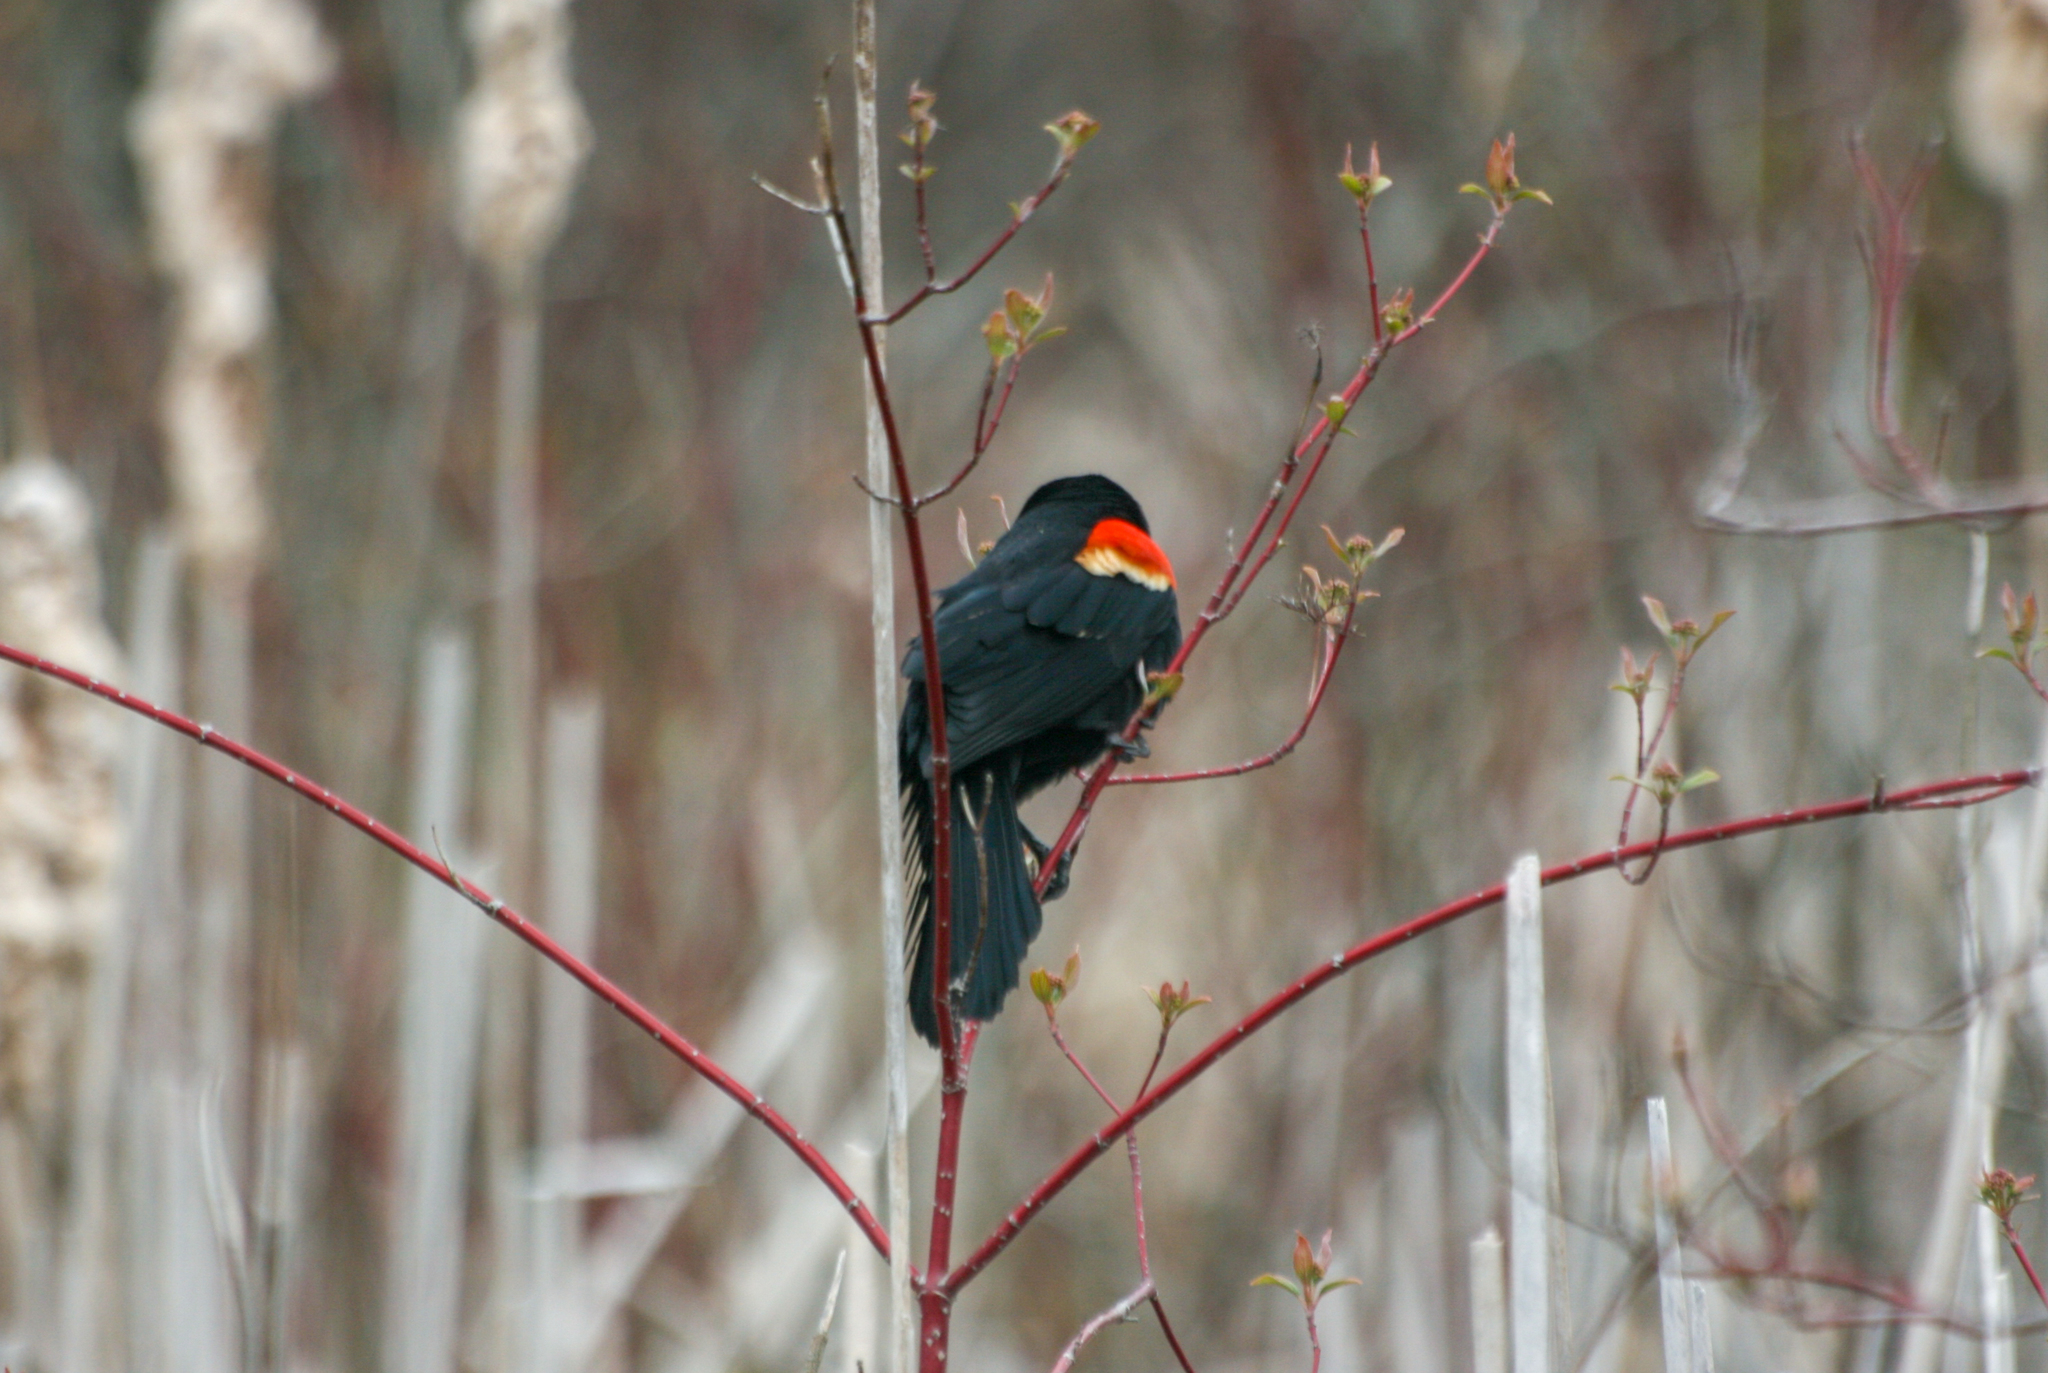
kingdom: Animalia
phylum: Chordata
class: Aves
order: Passeriformes
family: Icteridae
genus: Agelaius
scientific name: Agelaius phoeniceus
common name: Red-winged blackbird
